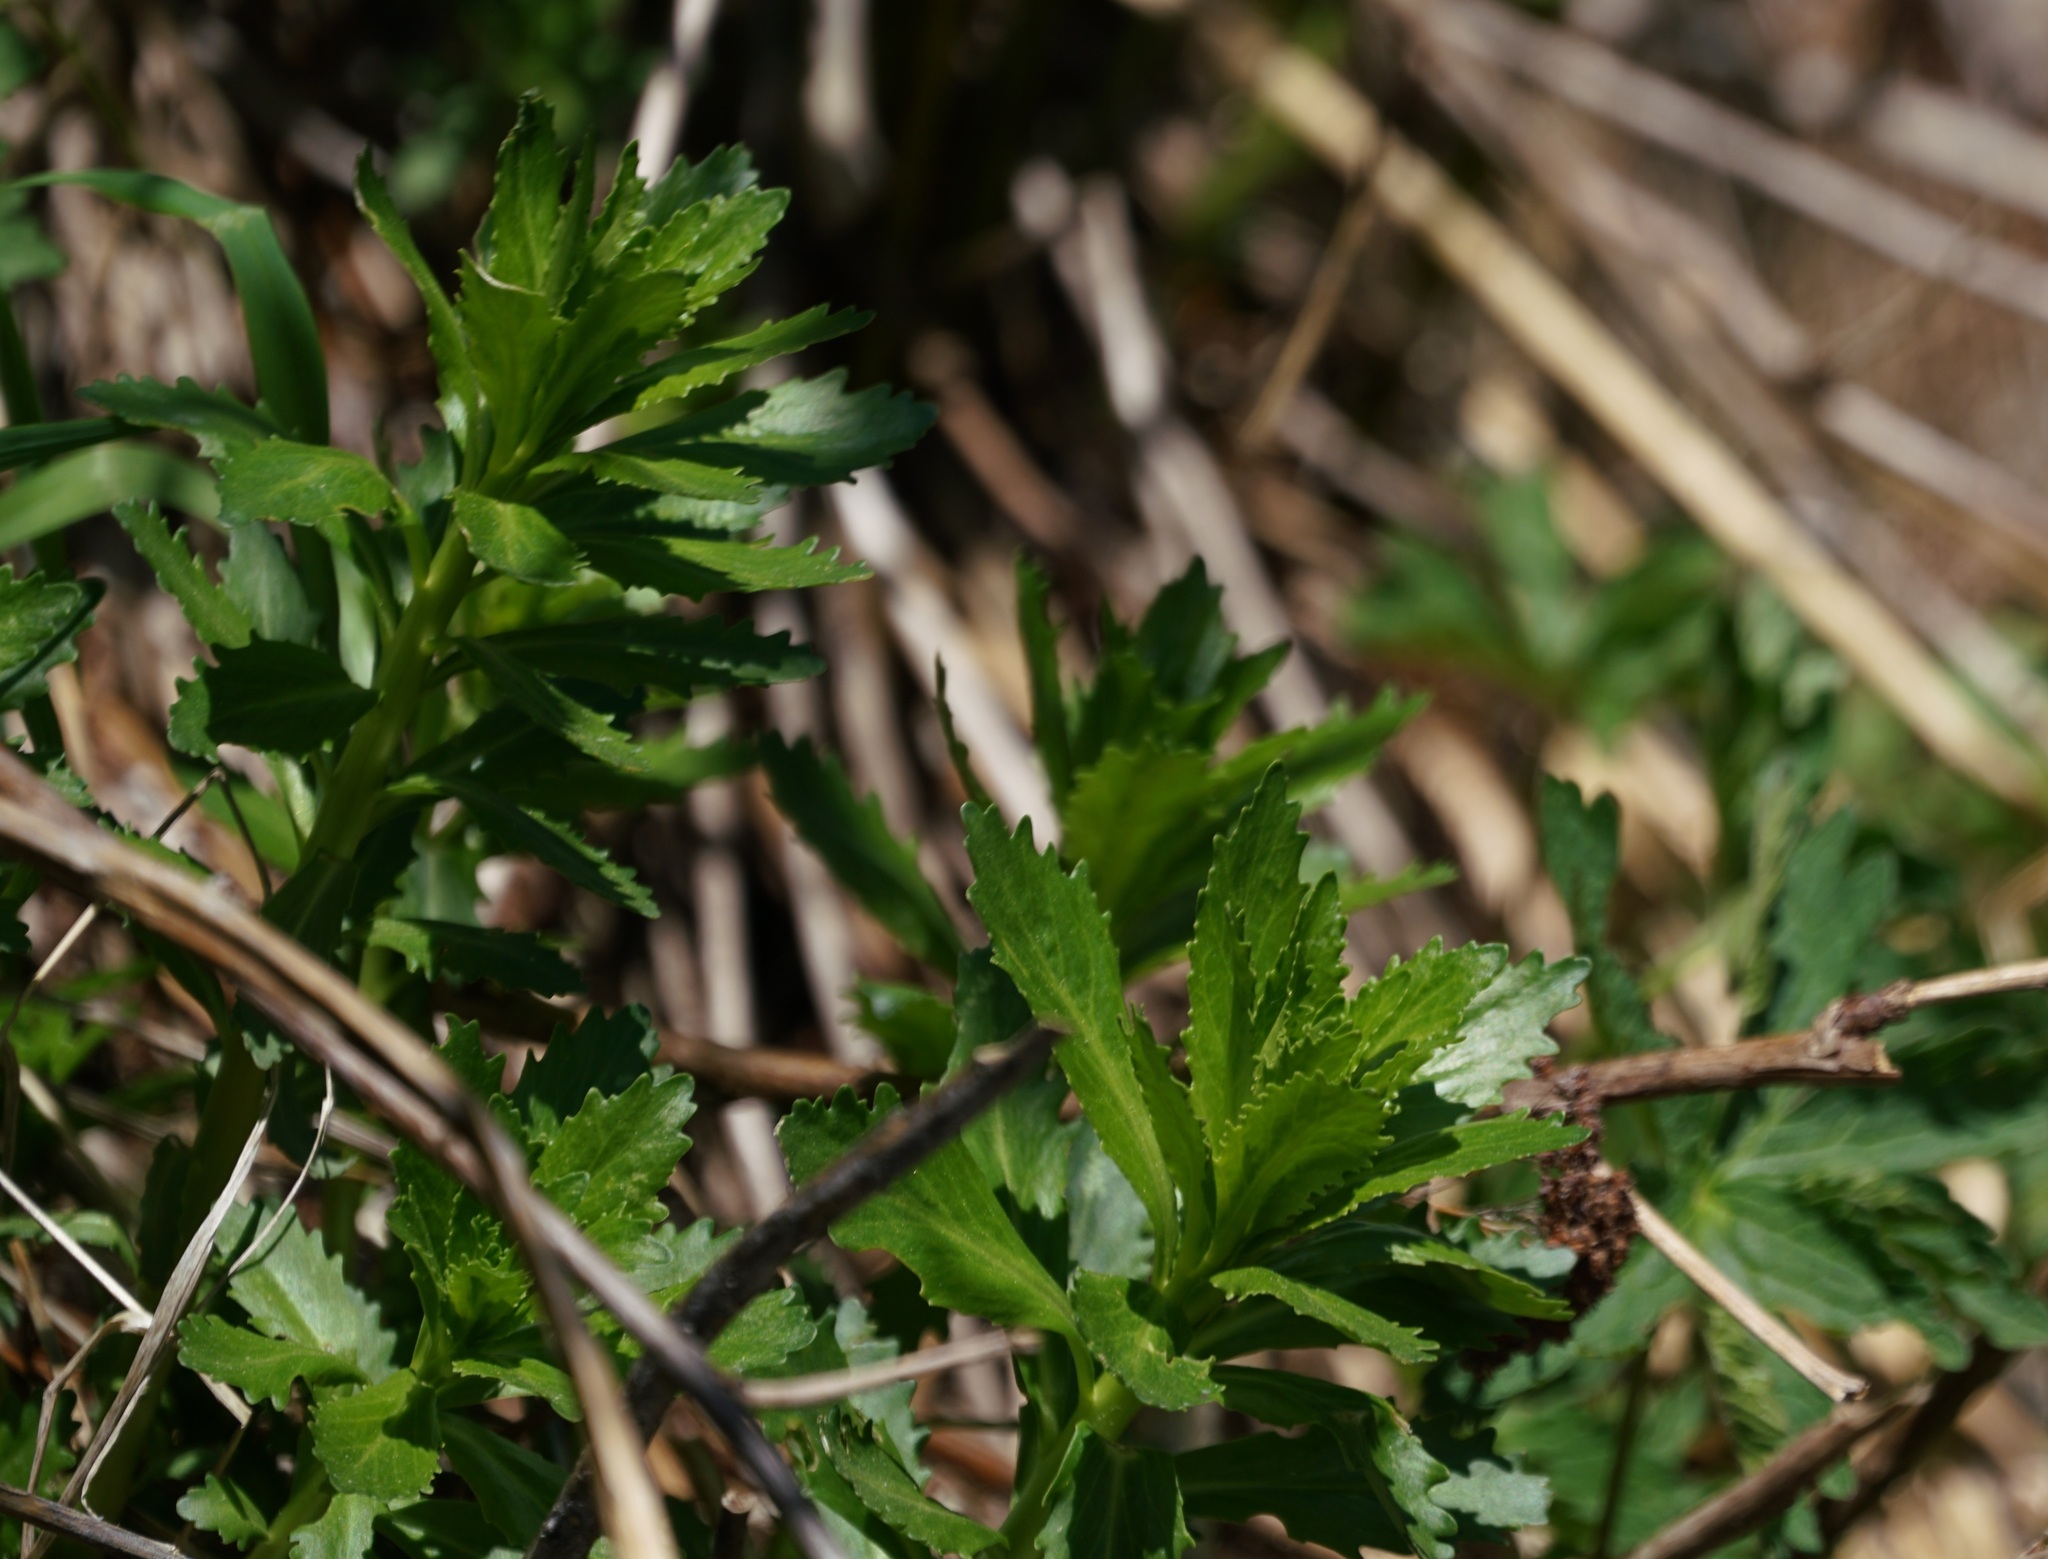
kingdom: Plantae
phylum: Tracheophyta
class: Magnoliopsida
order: Saxifragales
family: Crassulaceae
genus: Hylotelephium
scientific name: Hylotelephium vulgare
